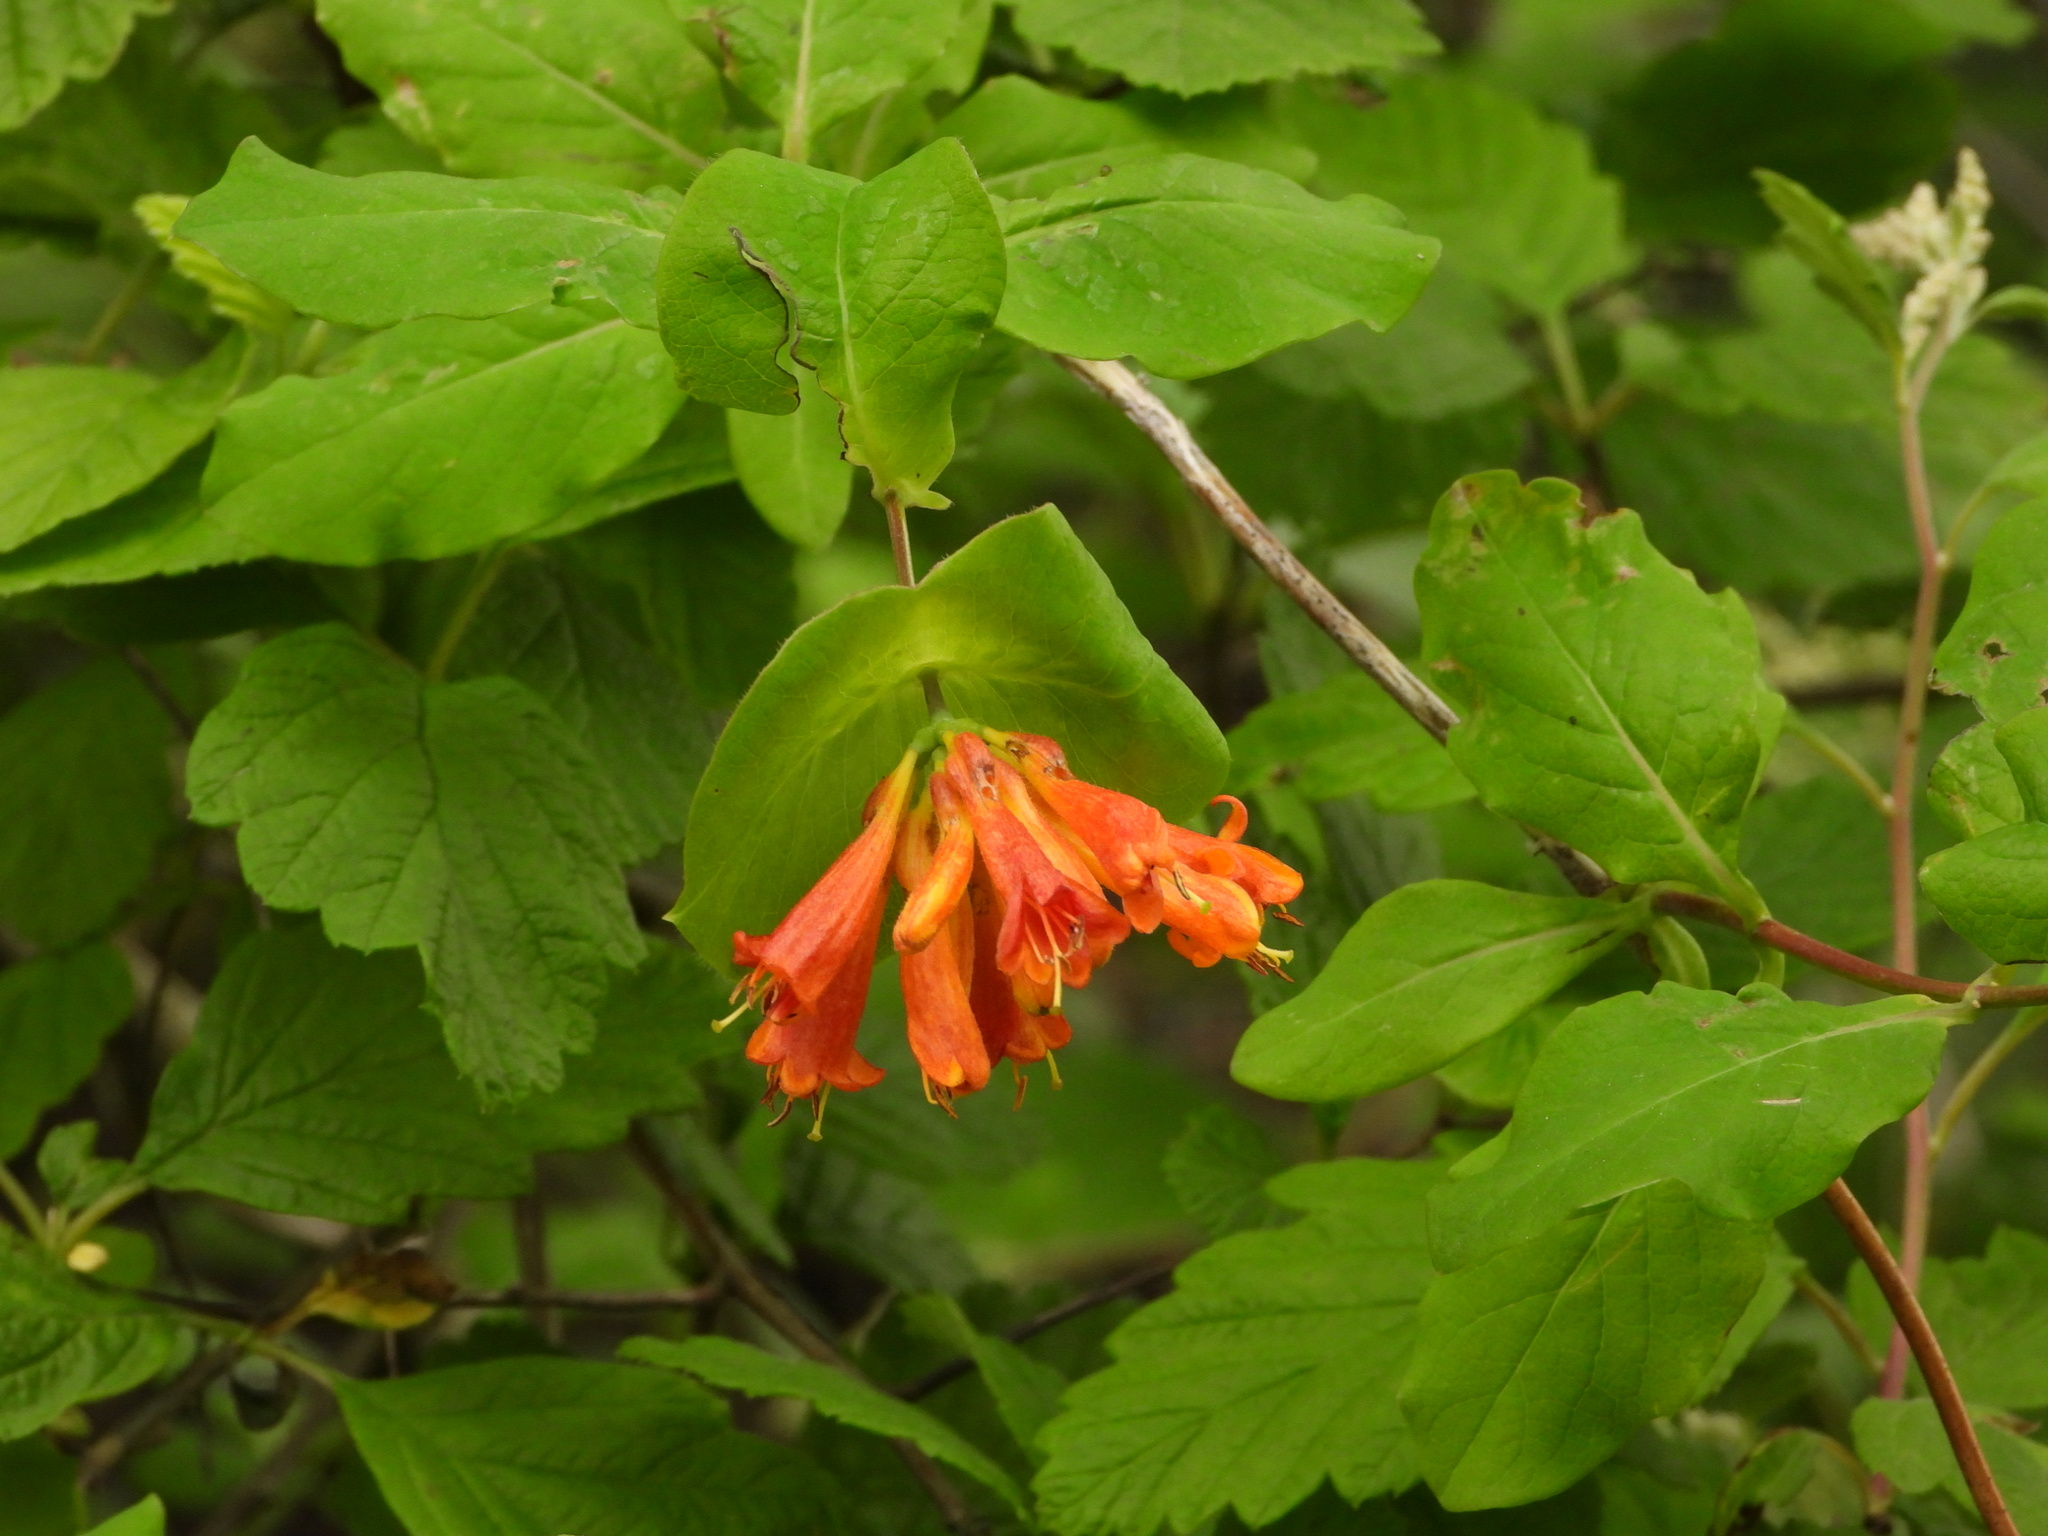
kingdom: Plantae
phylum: Tracheophyta
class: Magnoliopsida
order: Dipsacales
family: Caprifoliaceae
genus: Lonicera
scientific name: Lonicera ciliosa
